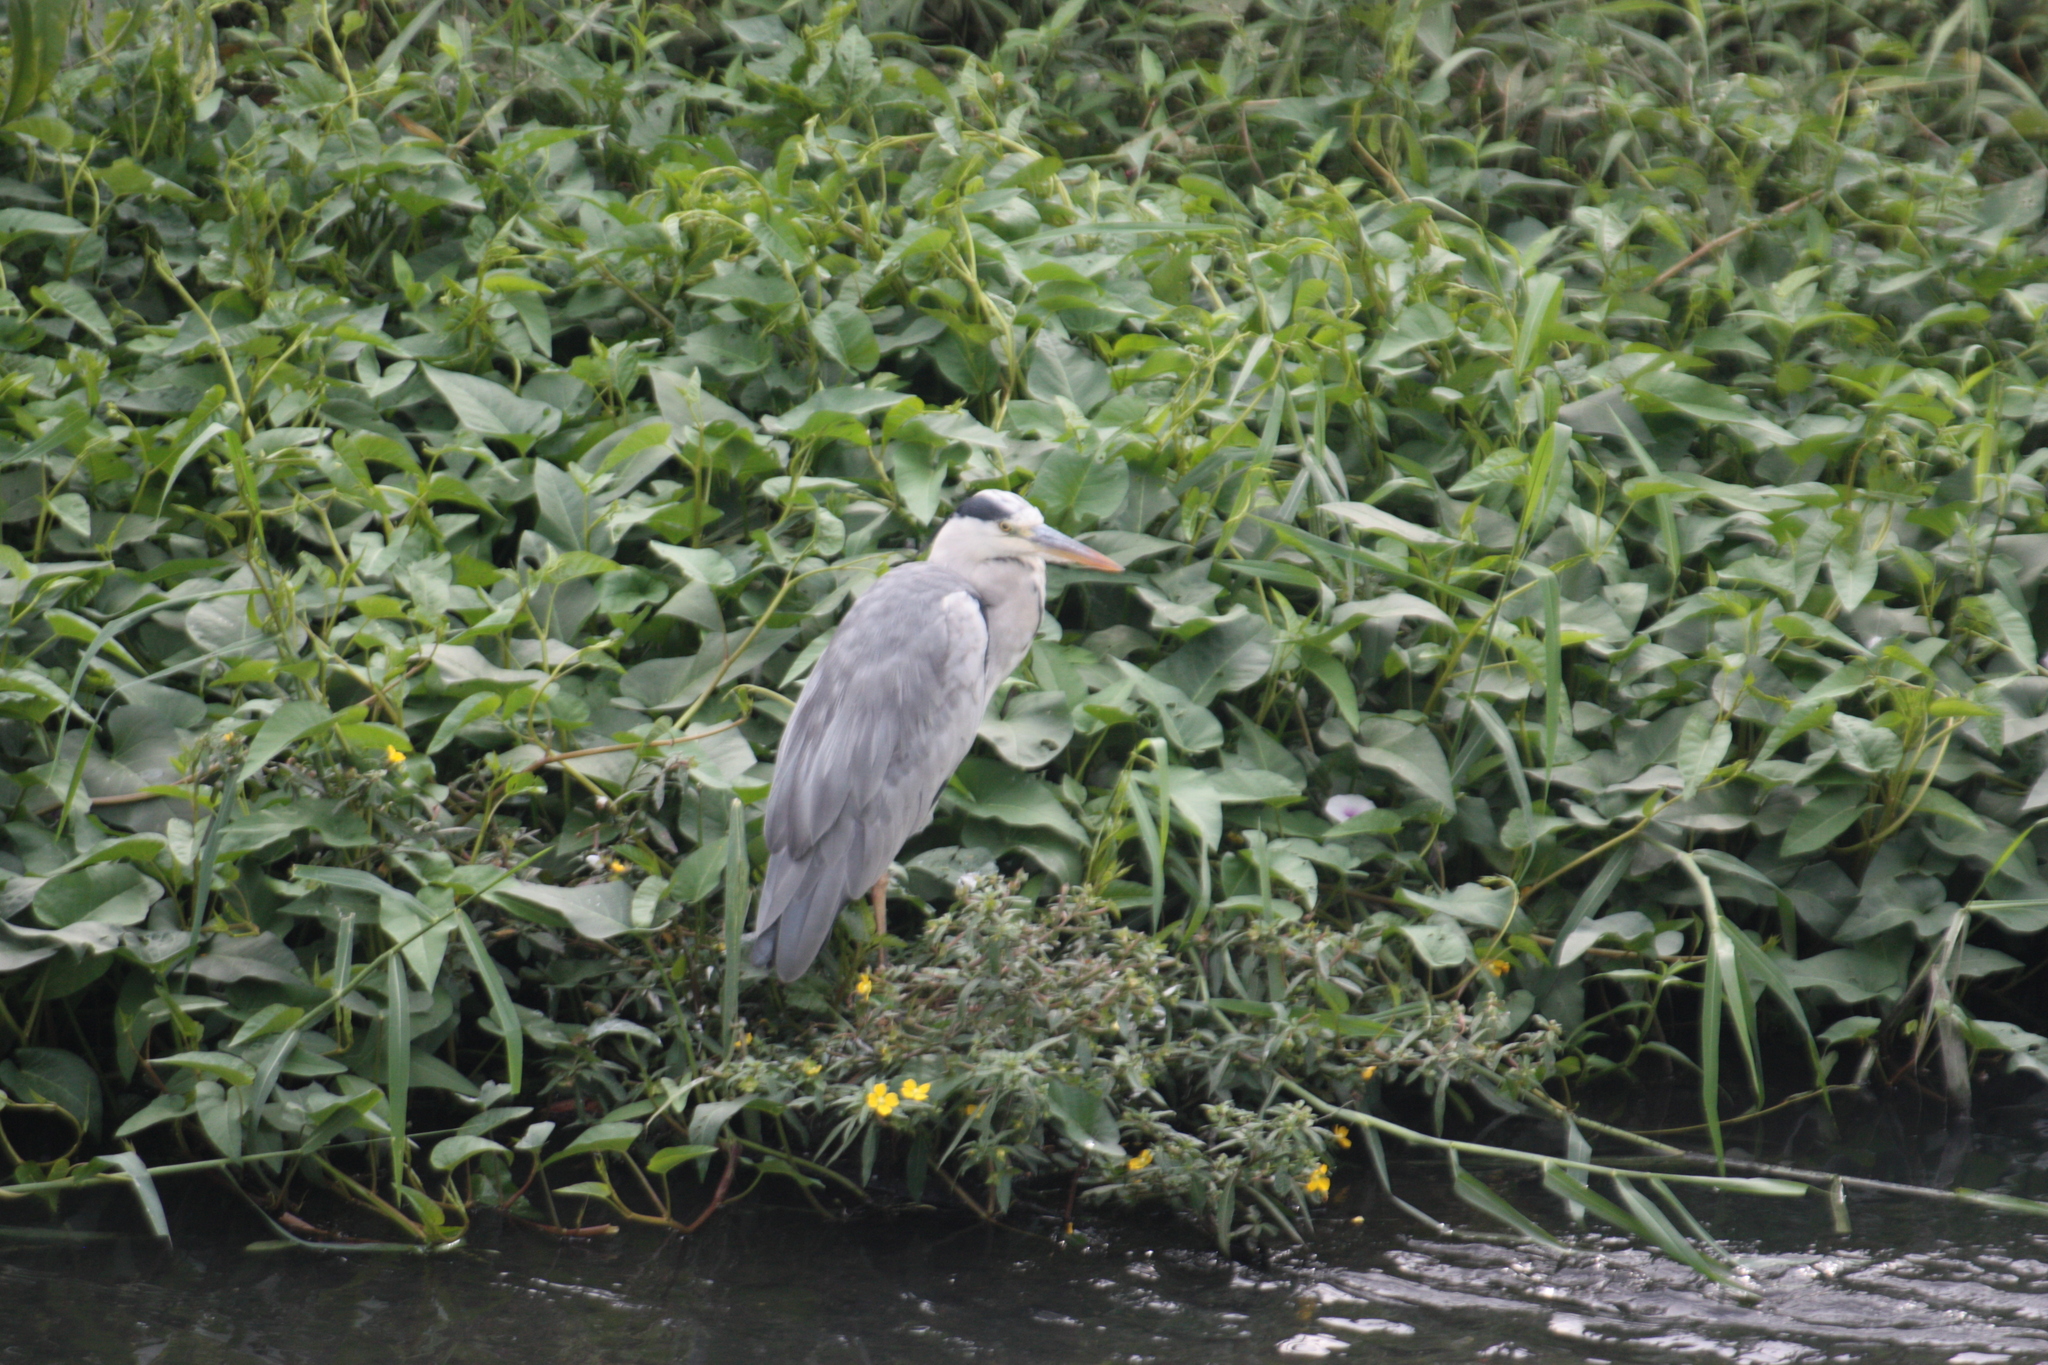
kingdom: Animalia
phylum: Chordata
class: Aves
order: Pelecaniformes
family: Ardeidae
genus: Ardea
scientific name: Ardea cinerea
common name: Grey heron
